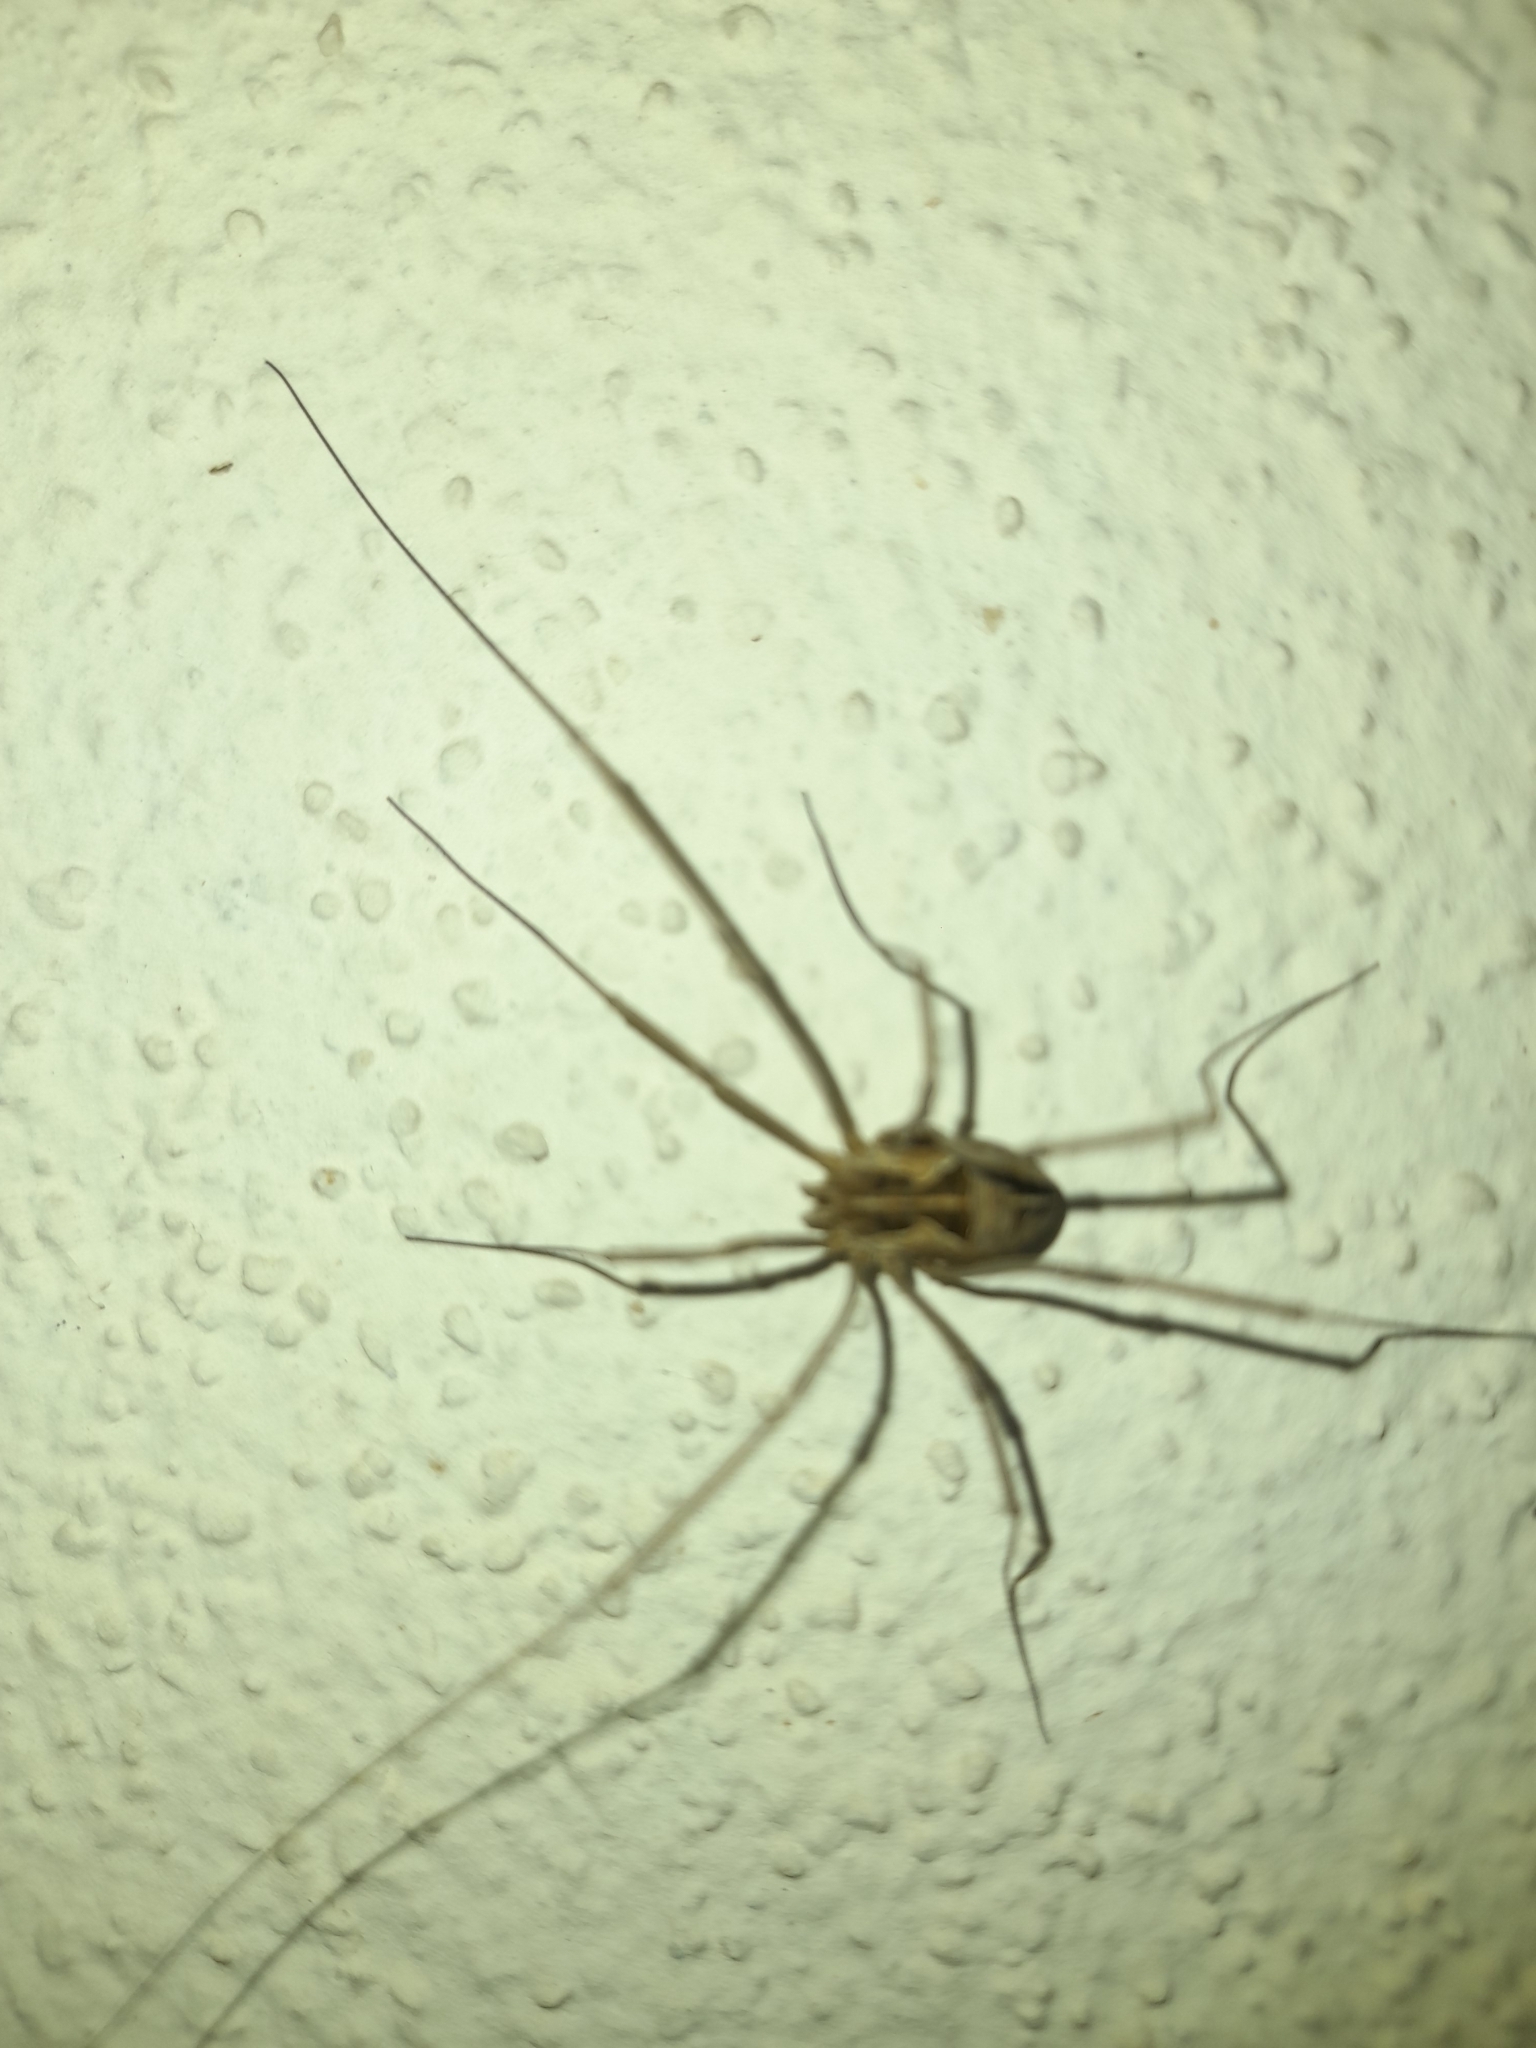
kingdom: Animalia
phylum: Arthropoda
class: Arachnida
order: Opiliones
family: Phalangiidae
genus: Metaphalangium
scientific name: Metaphalangium cirtanum
